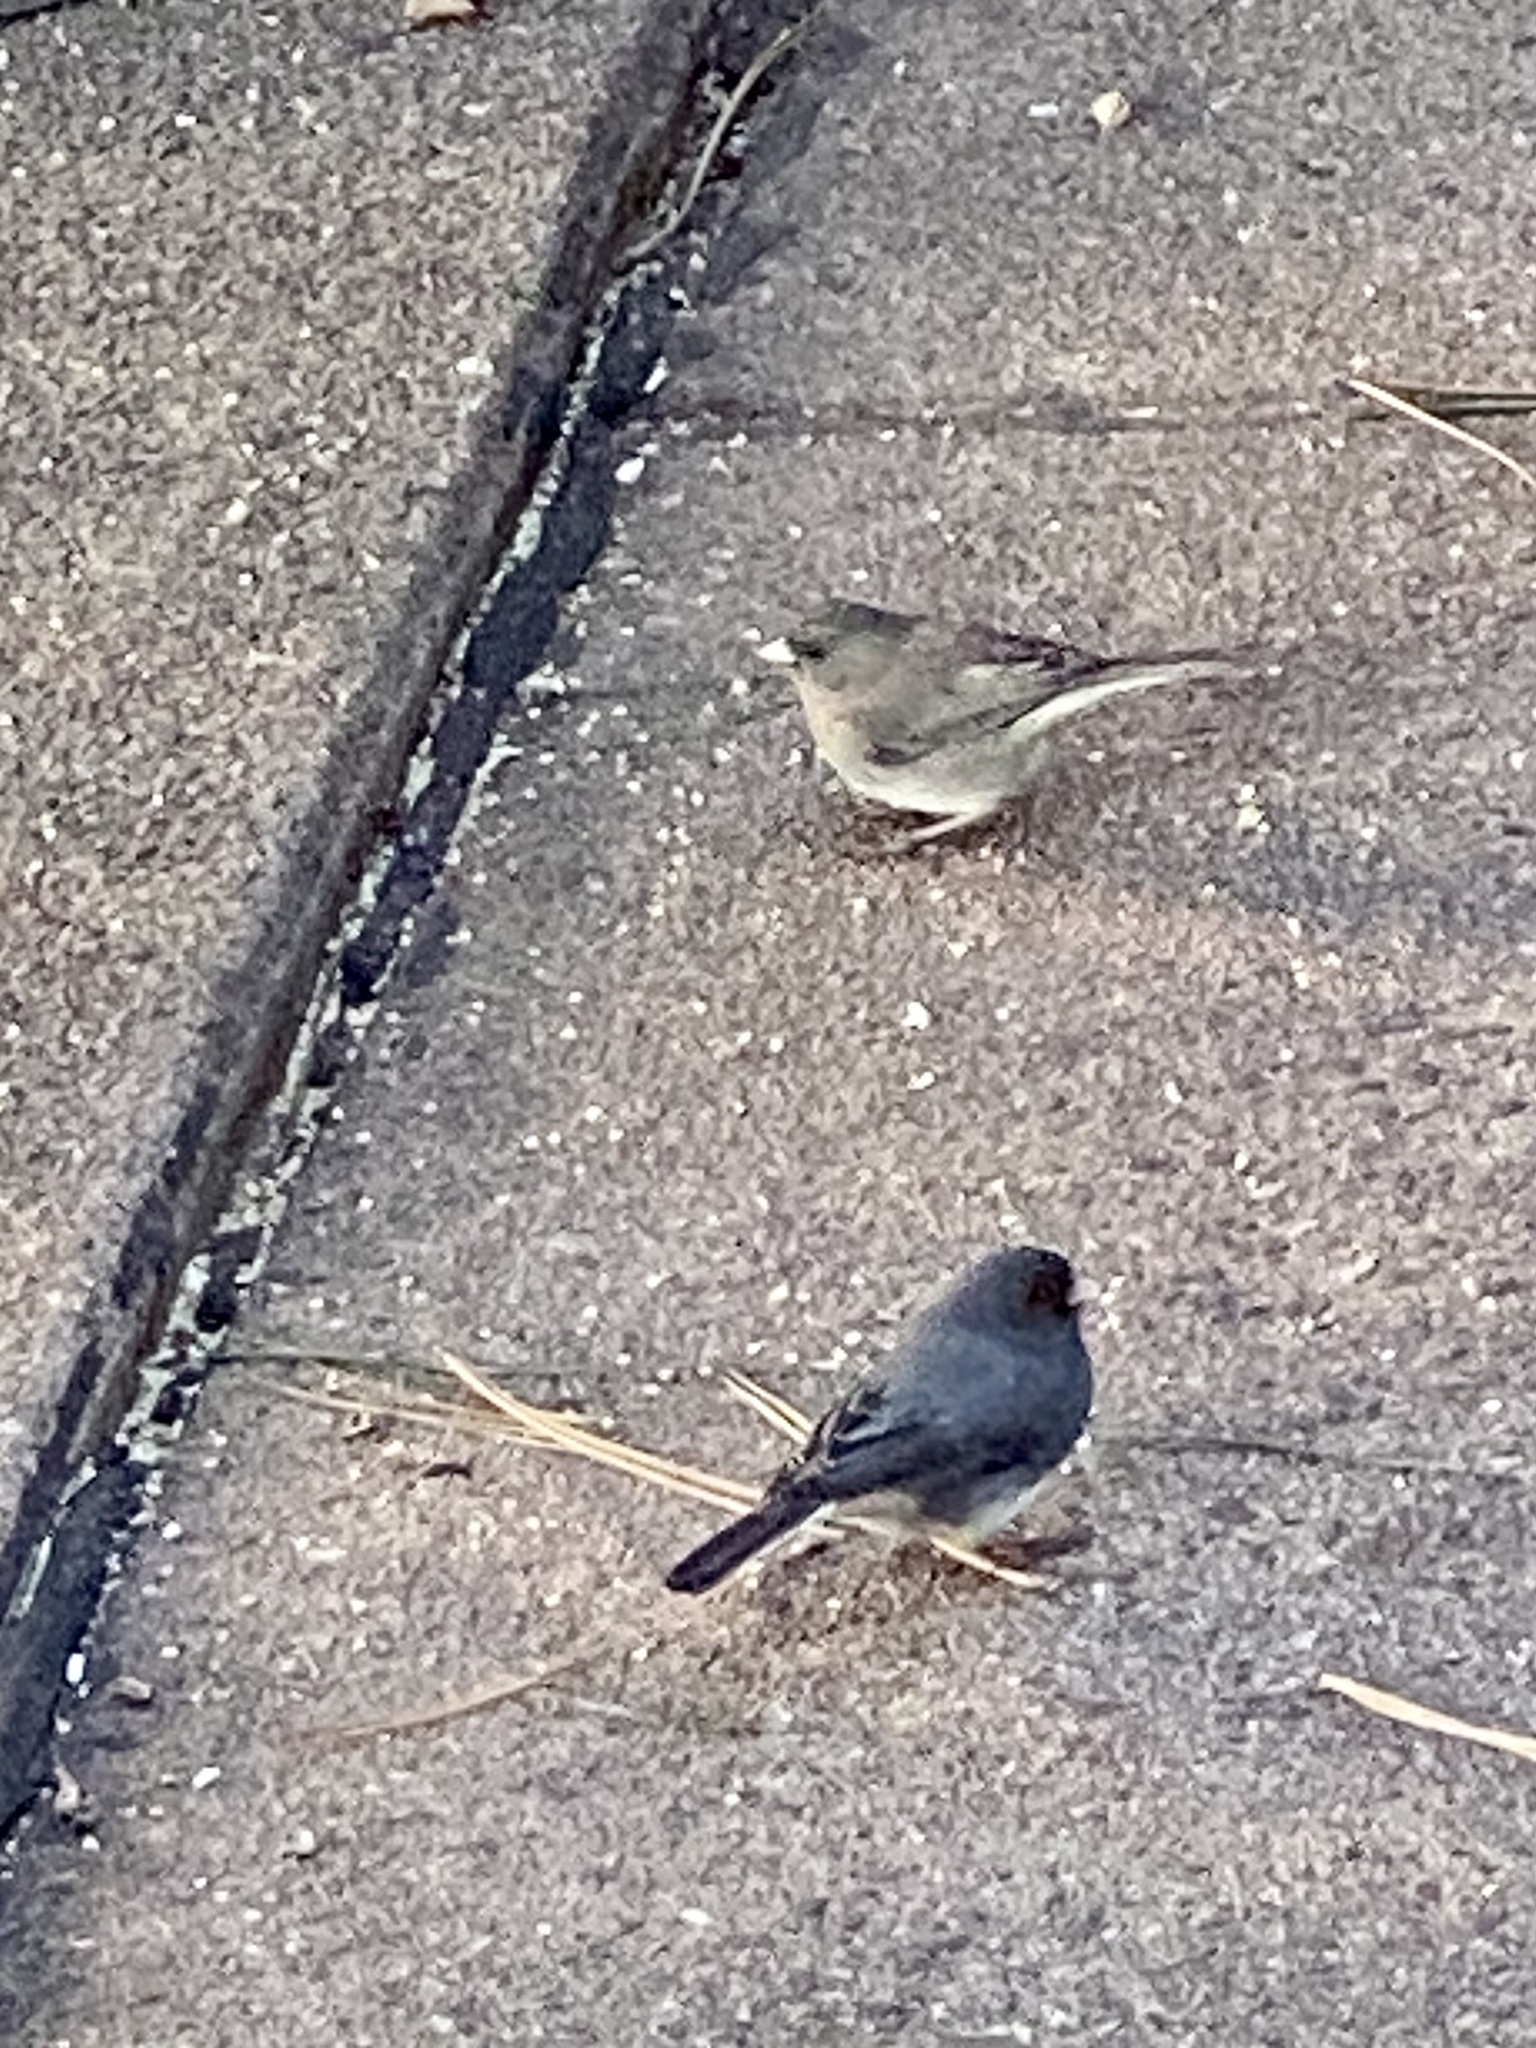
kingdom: Animalia
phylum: Chordata
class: Aves
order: Passeriformes
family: Passerellidae
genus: Junco
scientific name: Junco hyemalis
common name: Dark-eyed junco
